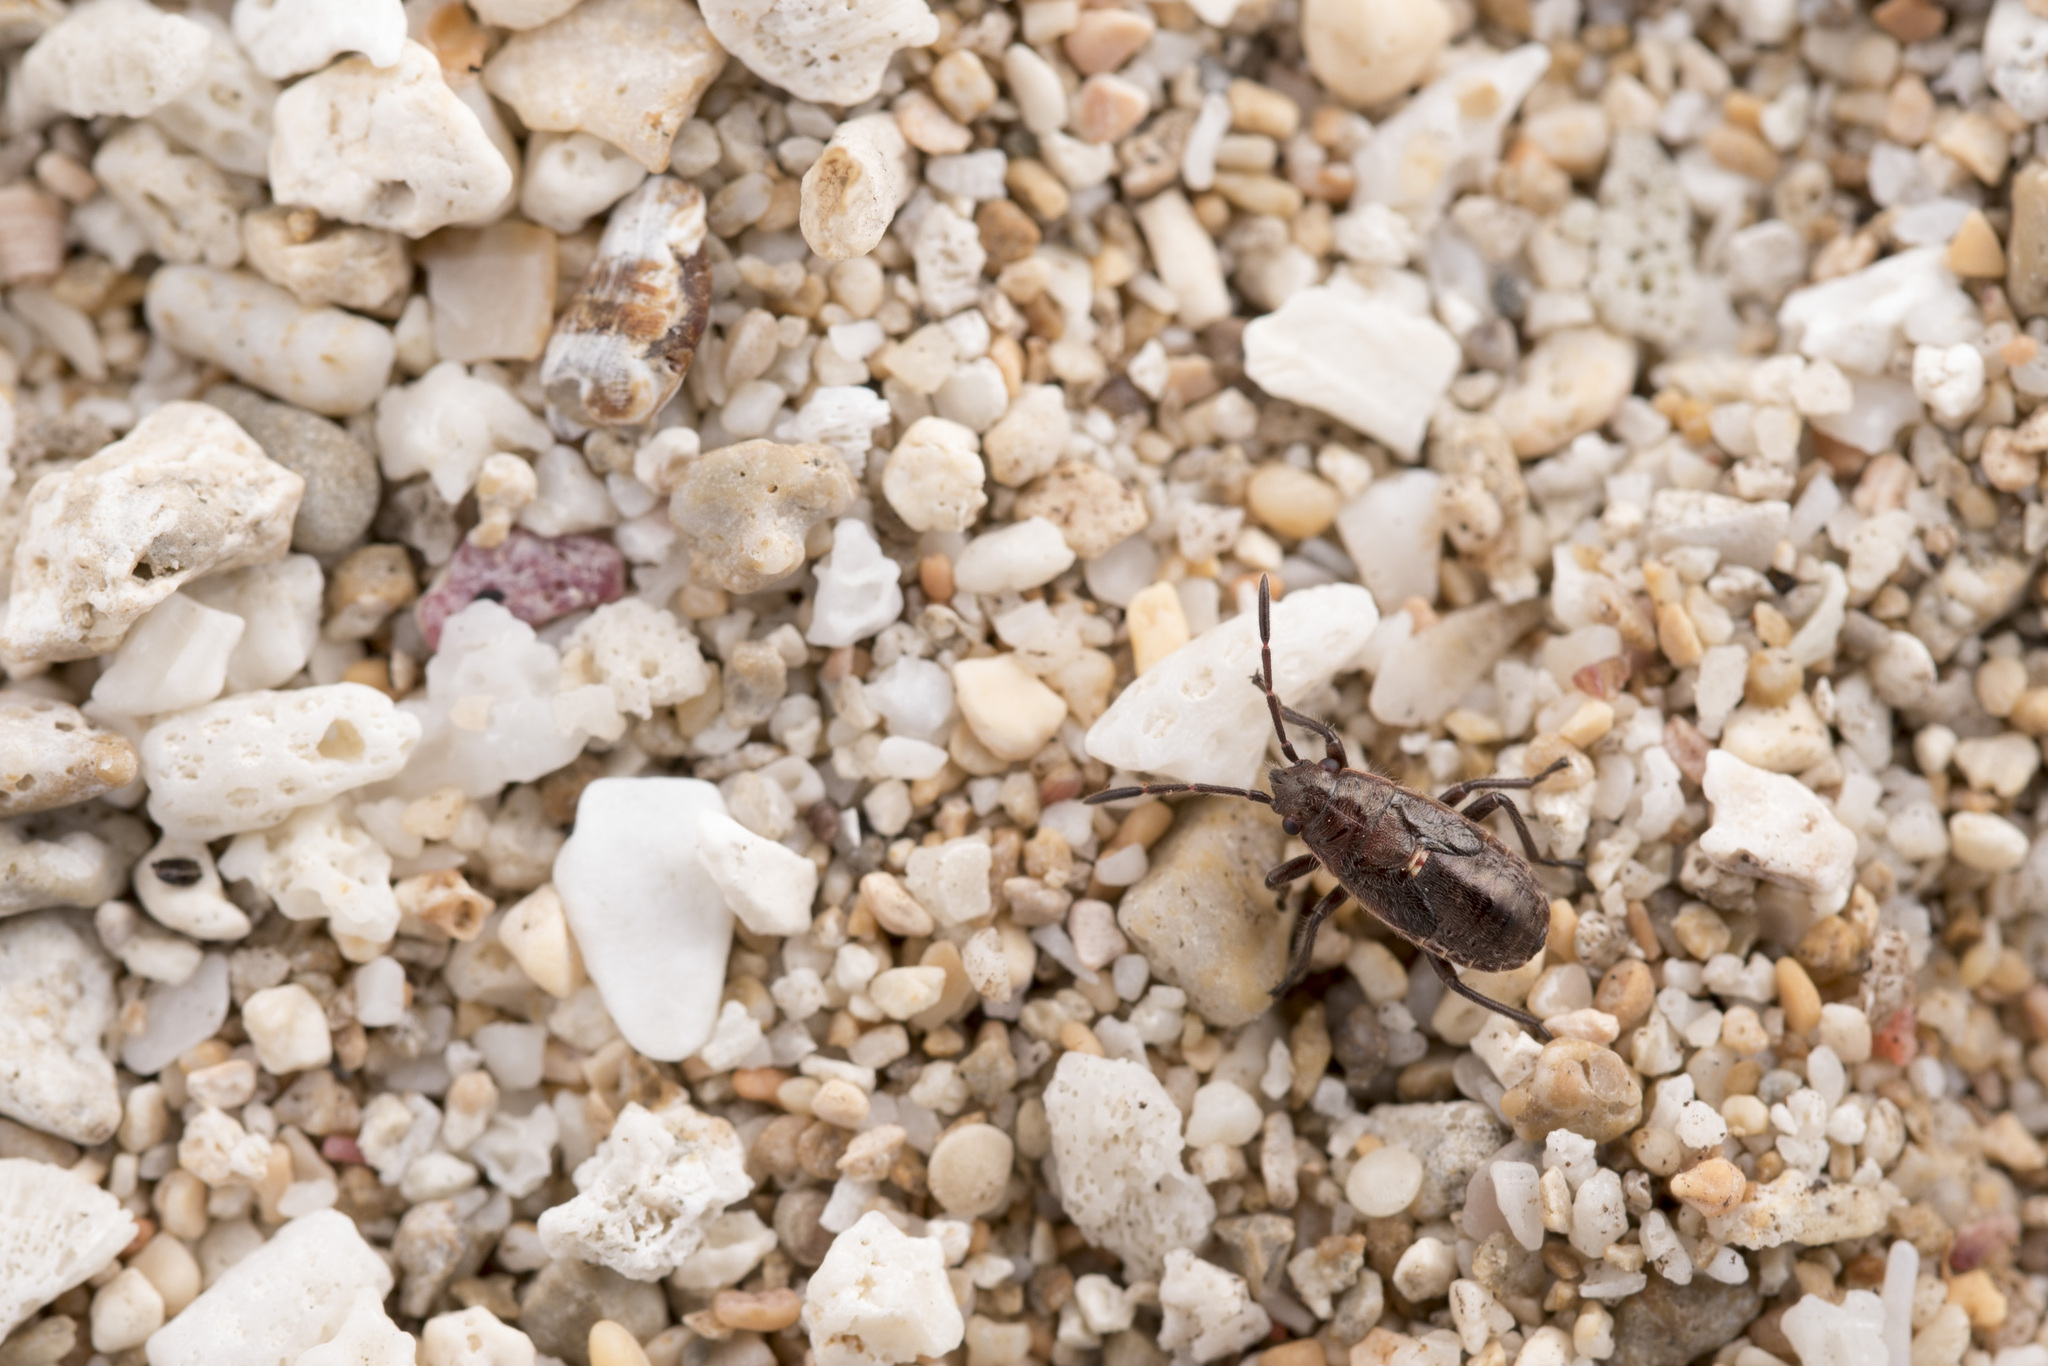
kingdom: Animalia
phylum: Arthropoda
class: Insecta
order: Hemiptera
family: Lygaeidae
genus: Graptostethus
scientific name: Graptostethus servus
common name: Lygaeid bug
